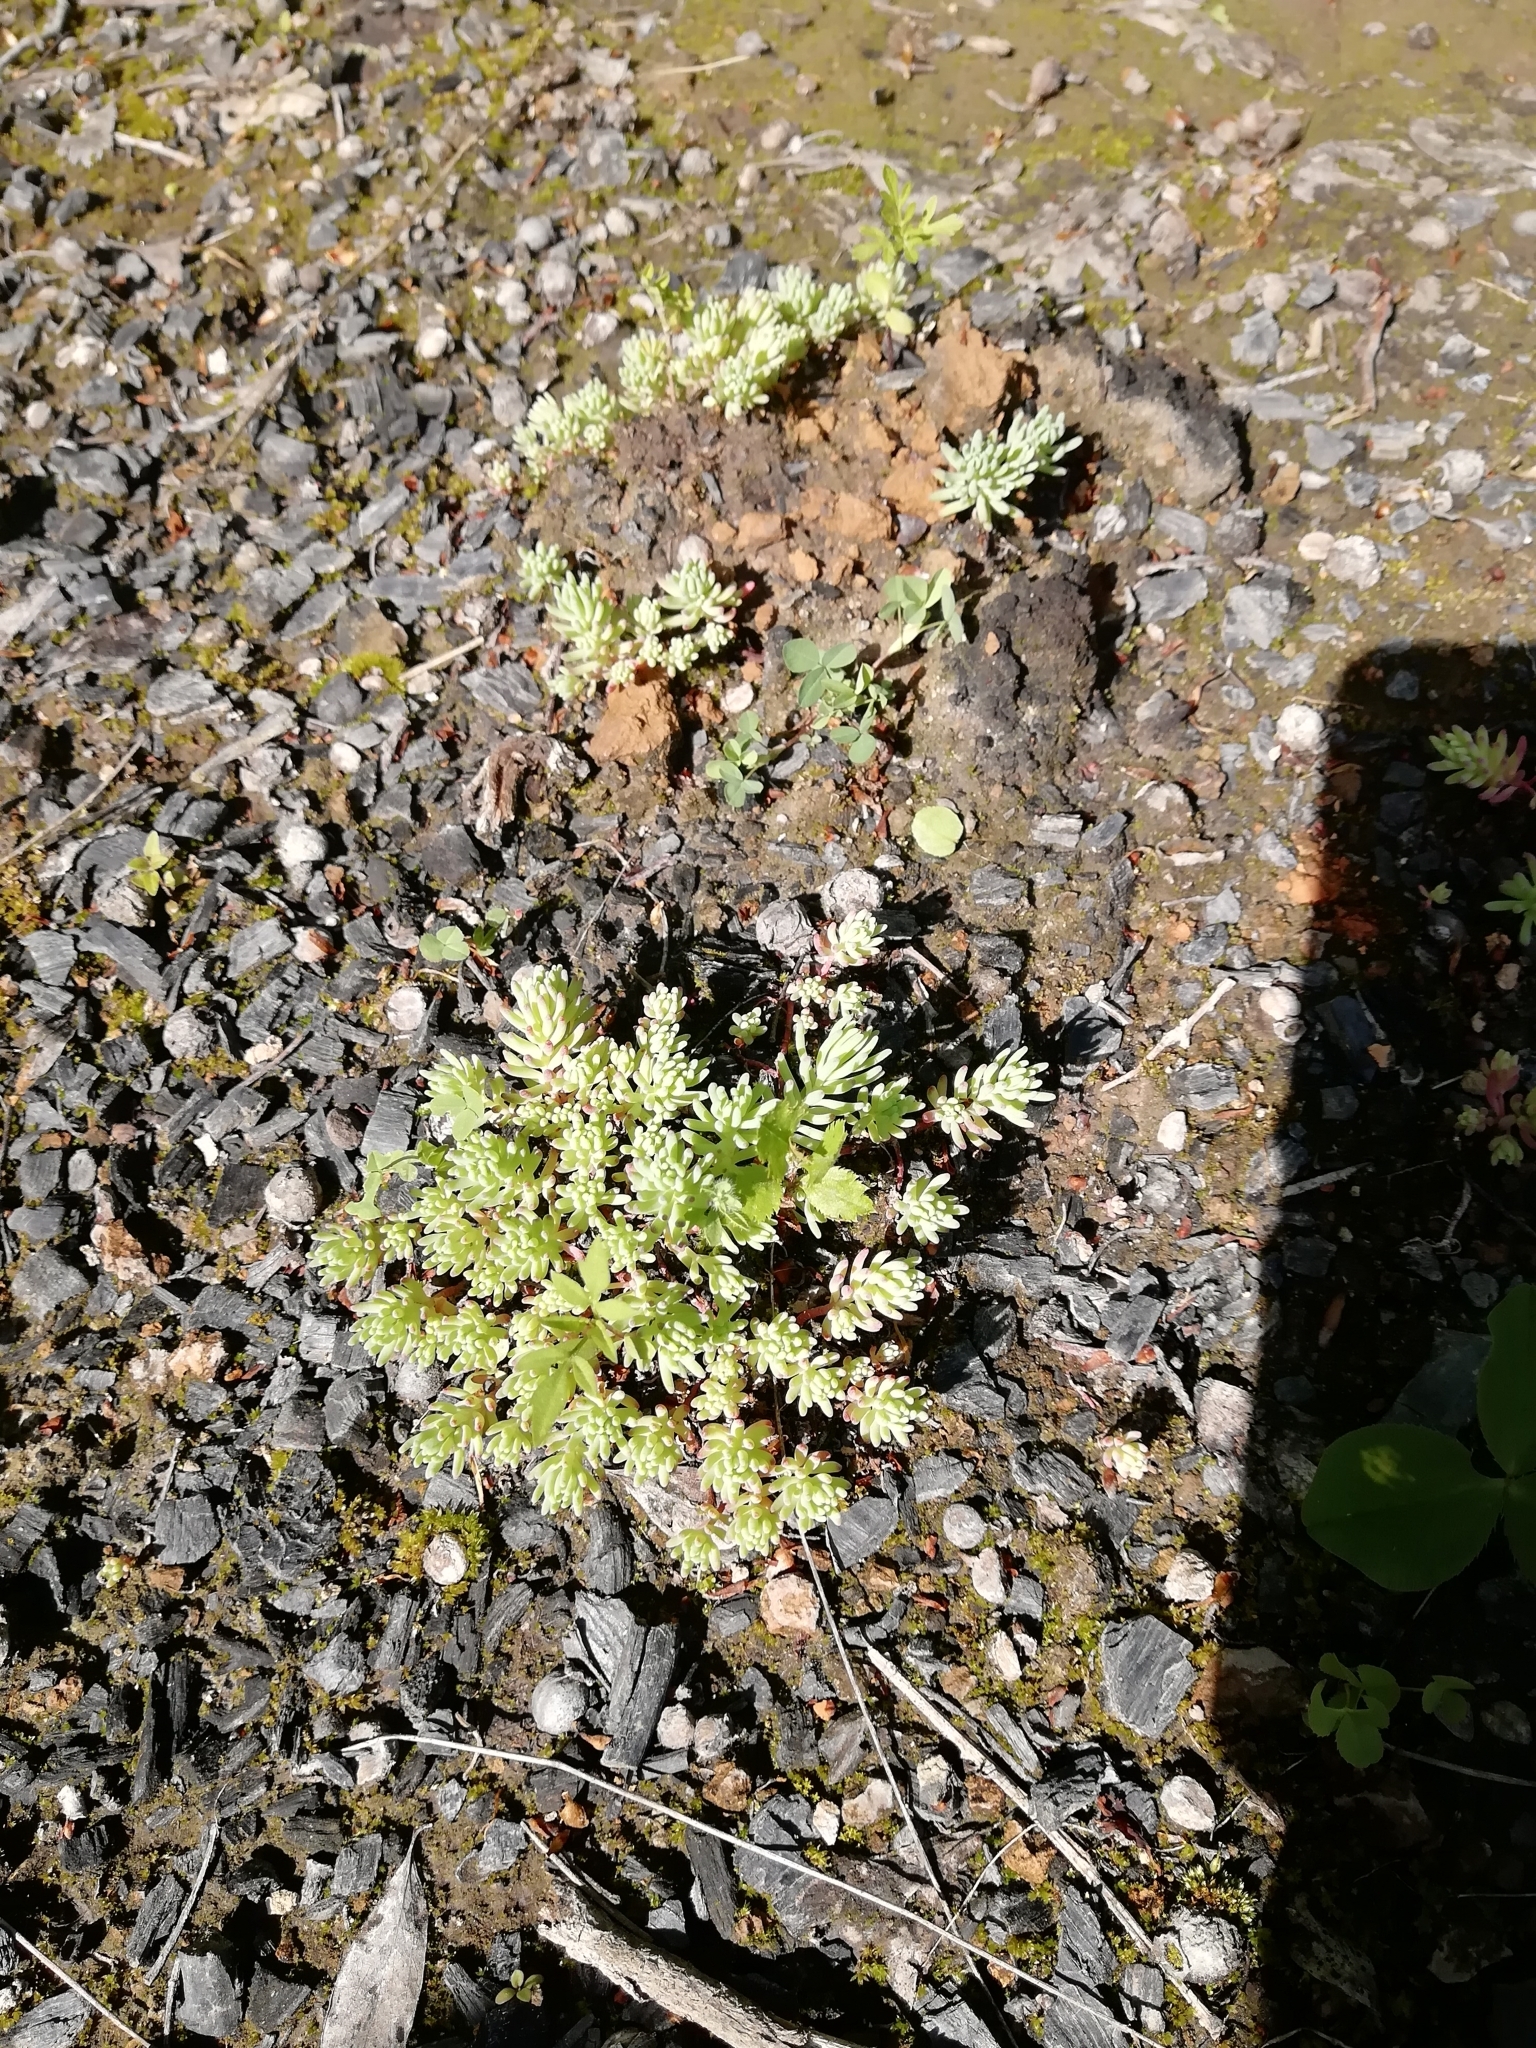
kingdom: Plantae
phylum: Tracheophyta
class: Magnoliopsida
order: Saxifragales
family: Crassulaceae
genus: Sedum
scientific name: Sedum pallidum
